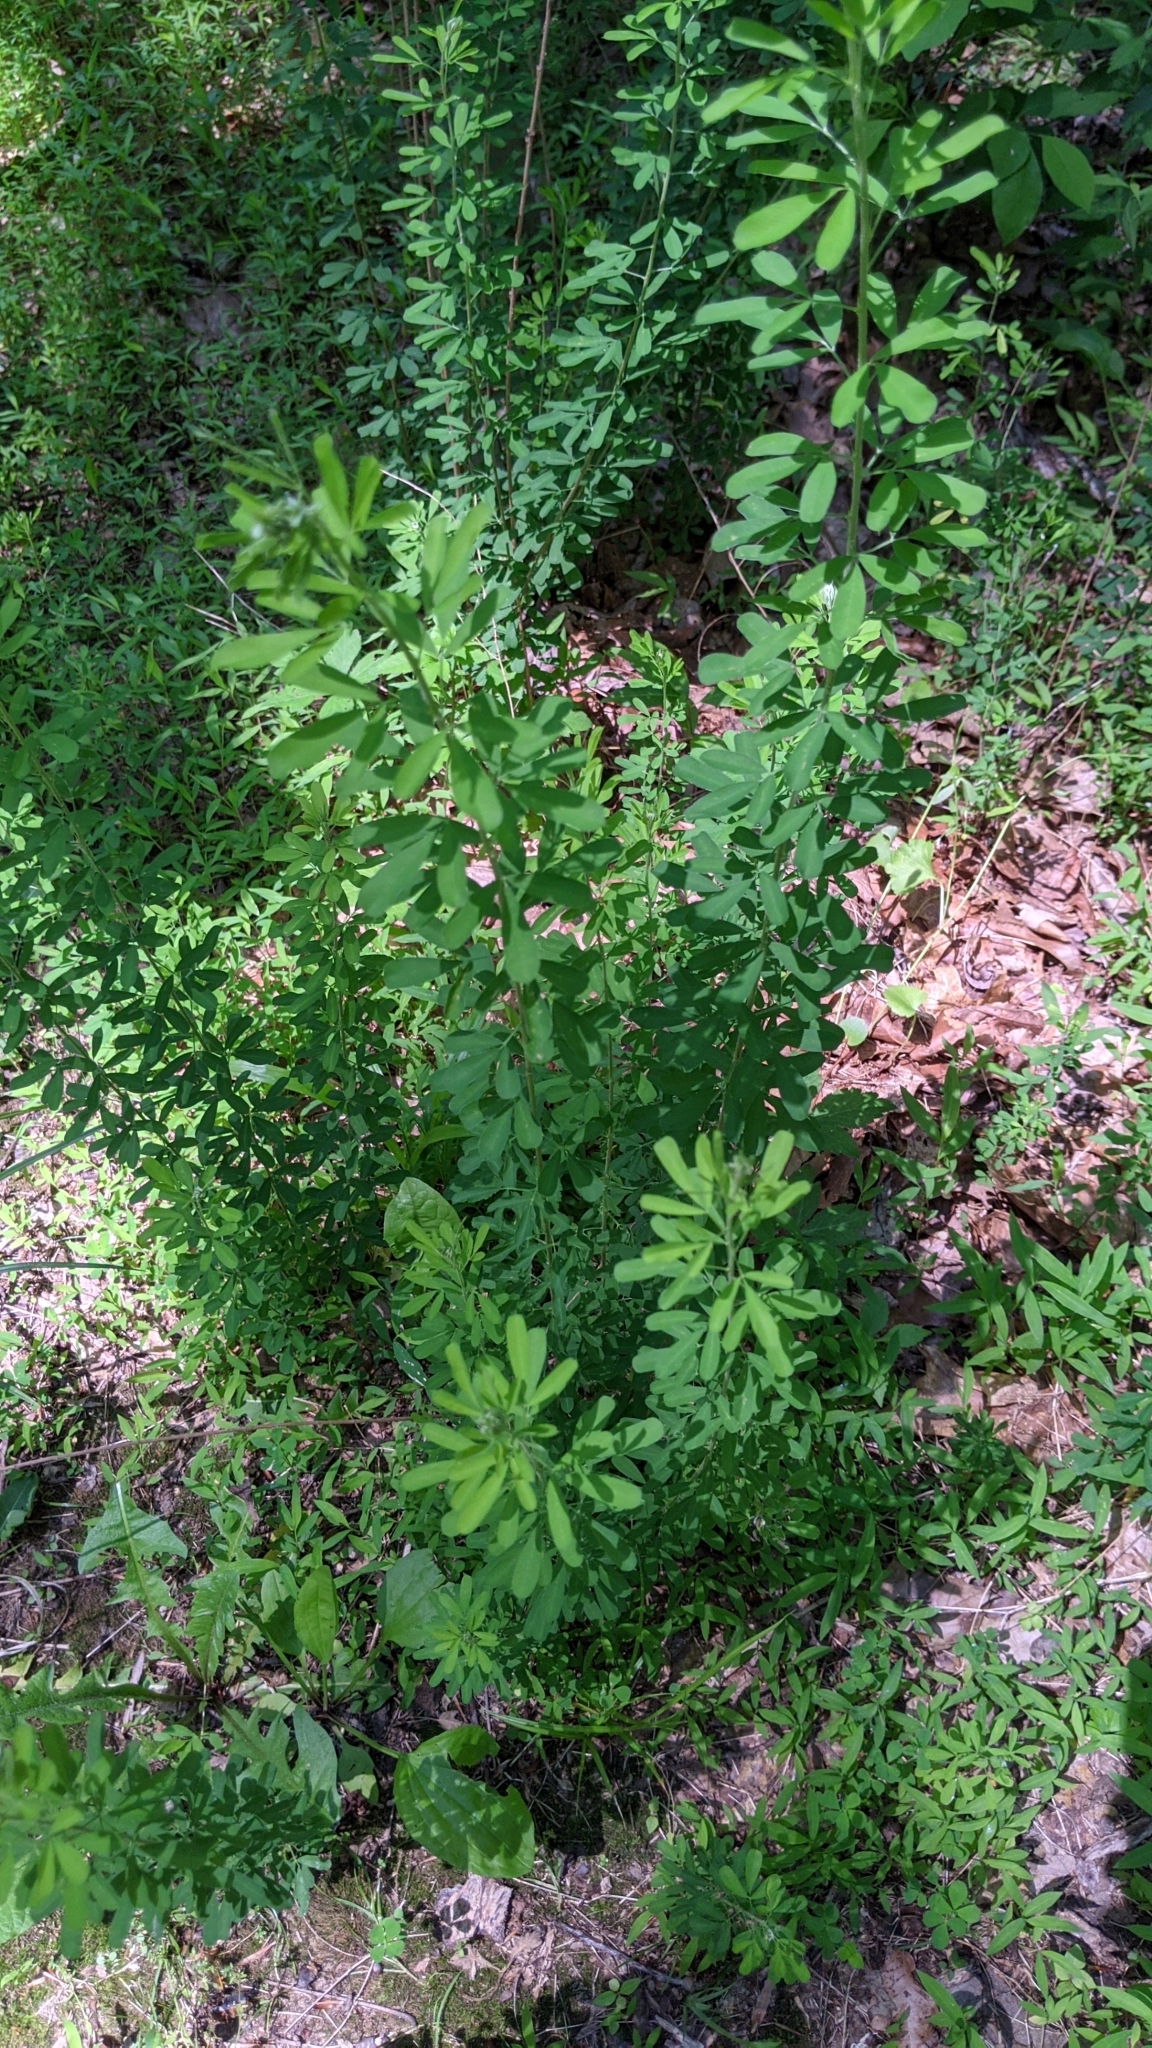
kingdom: Plantae
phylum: Tracheophyta
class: Magnoliopsida
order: Fabales
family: Fabaceae
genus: Lespedeza
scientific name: Lespedeza cuneata
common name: Chinese bush-clover
